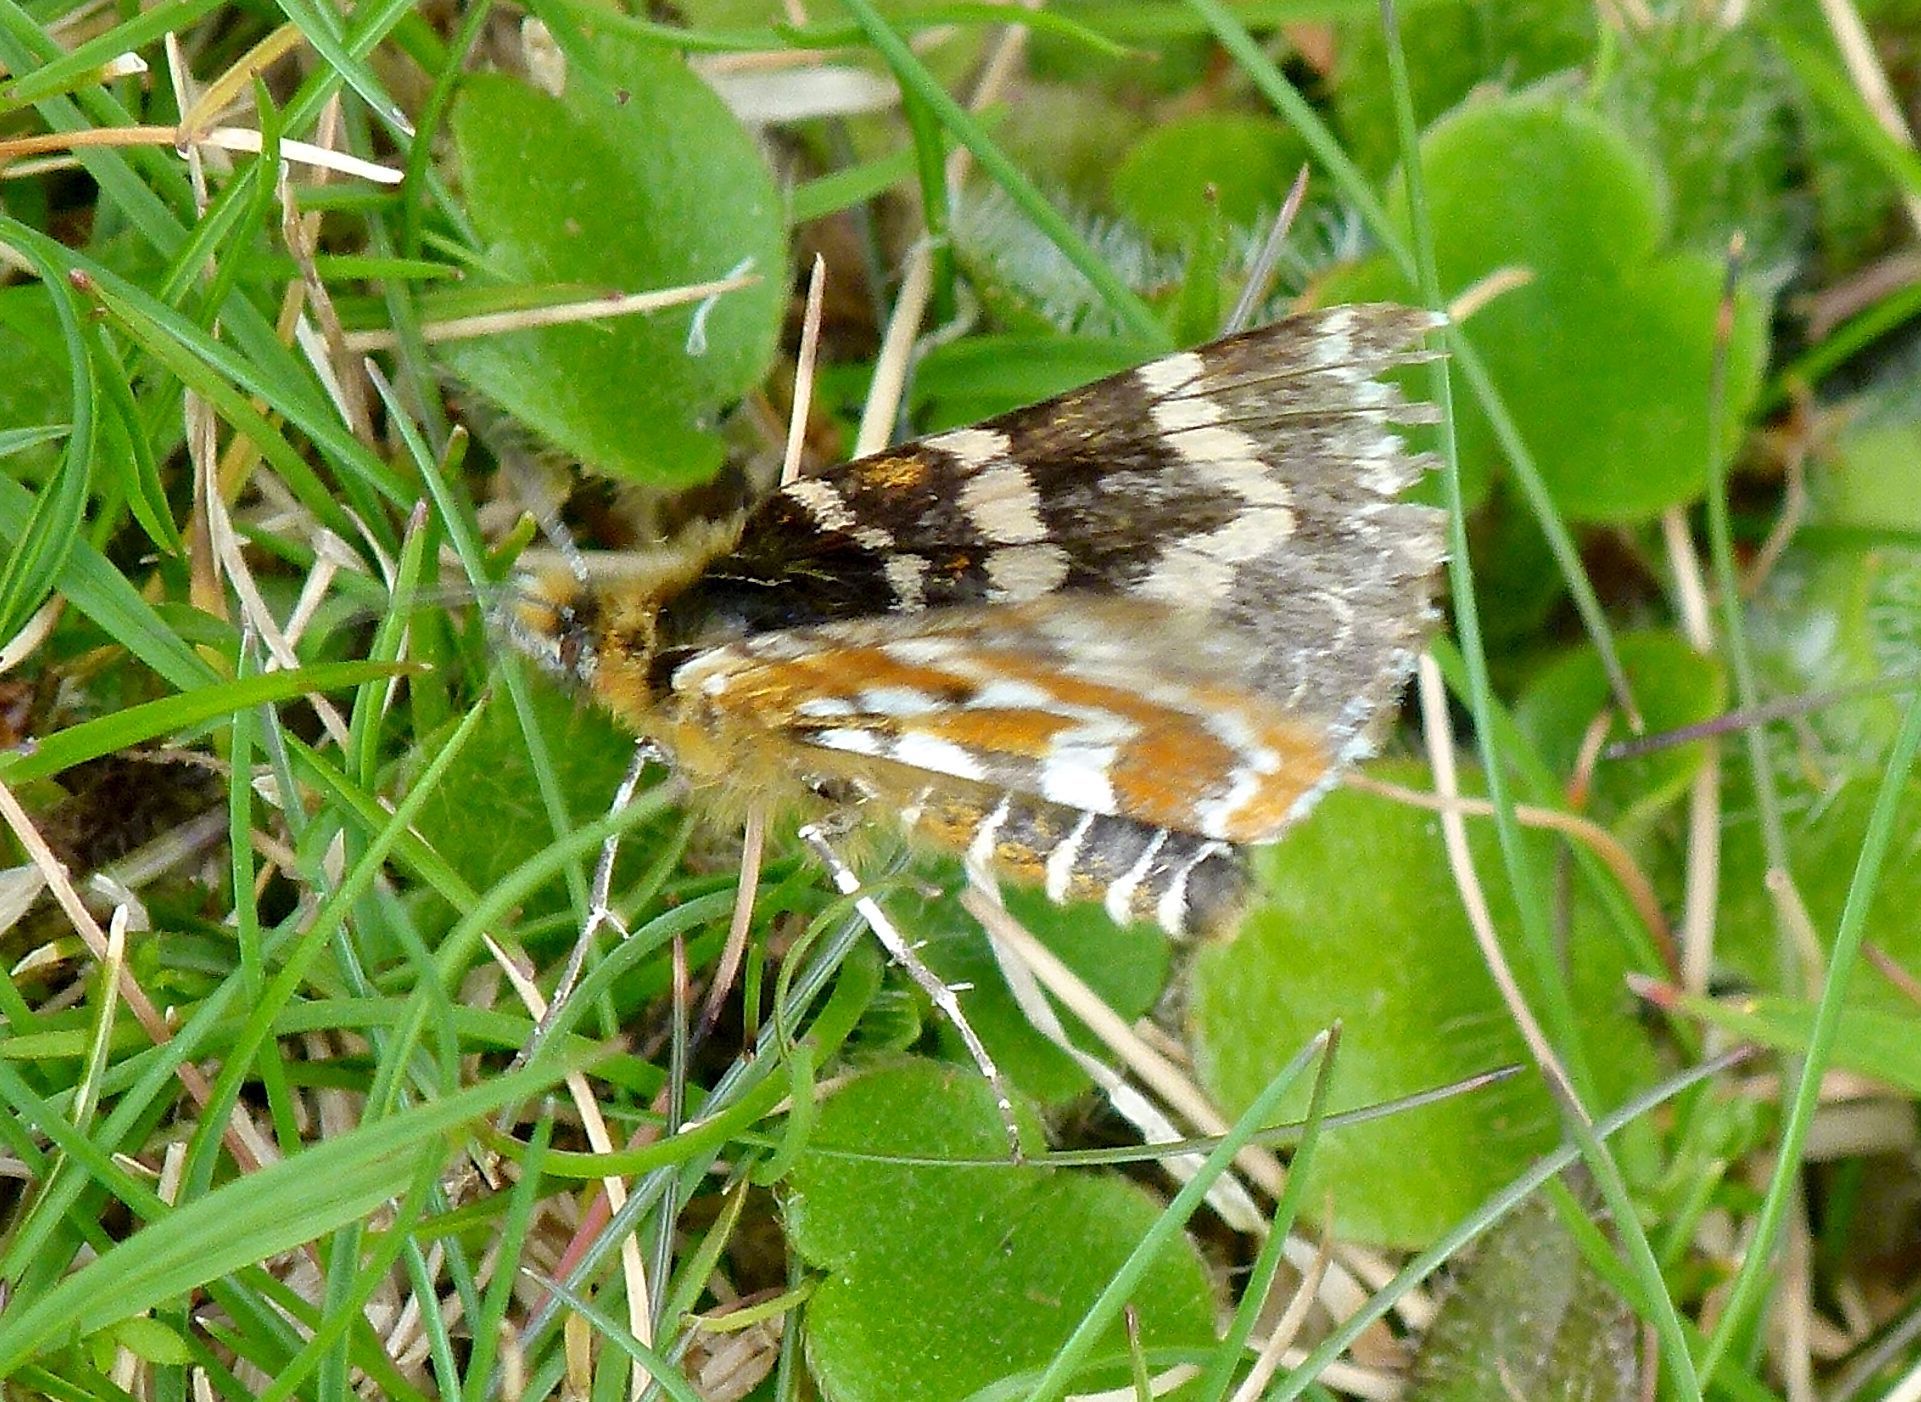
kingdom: Animalia
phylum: Arthropoda
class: Insecta
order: Lepidoptera
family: Geometridae
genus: Dasyuris
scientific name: Dasyuris callicrena
